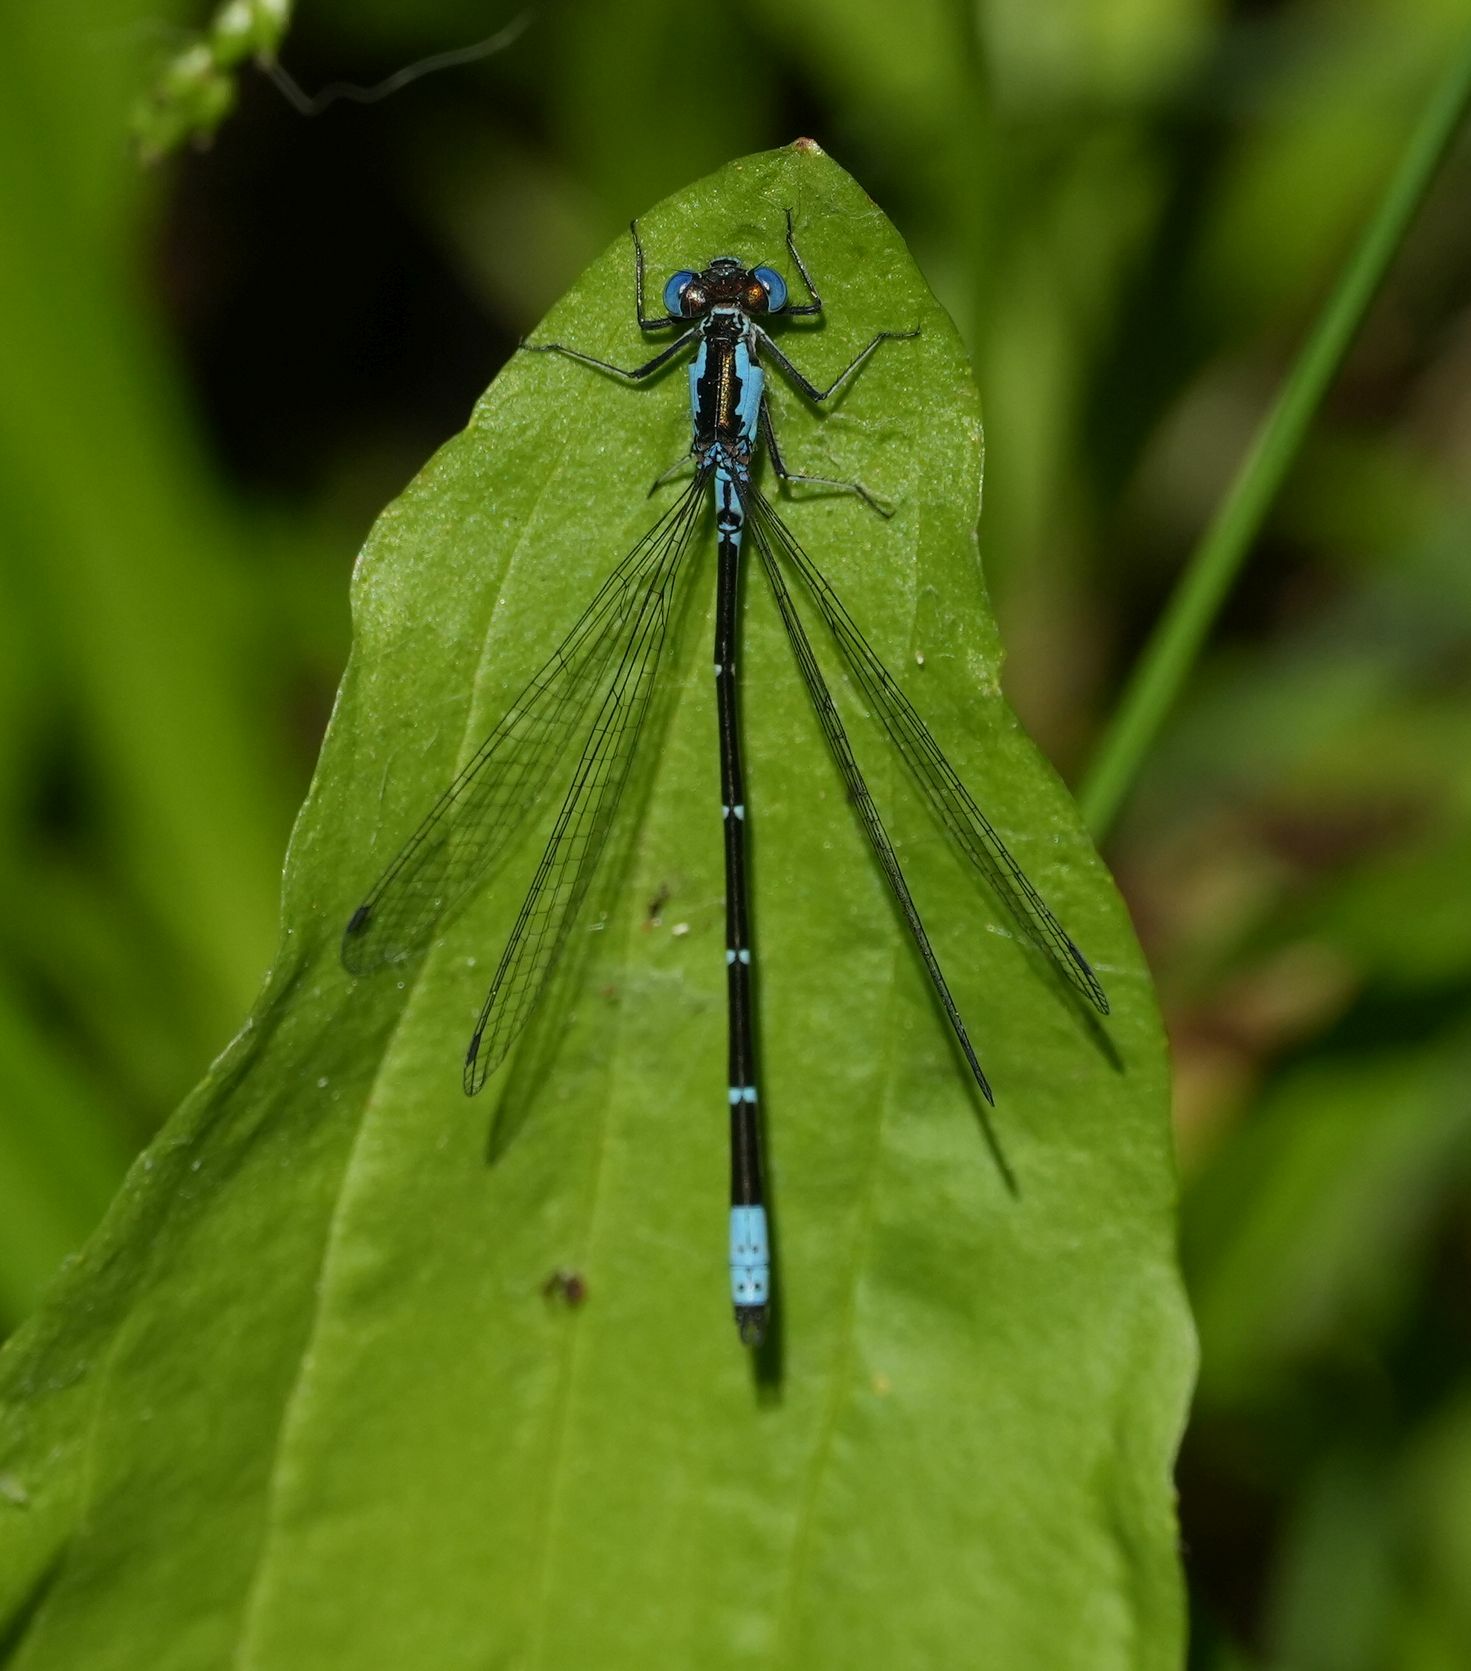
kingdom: Animalia
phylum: Arthropoda
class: Insecta
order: Odonata
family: Coenagrionidae
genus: Chromagrion
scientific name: Chromagrion conditum
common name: Aurora damsel
